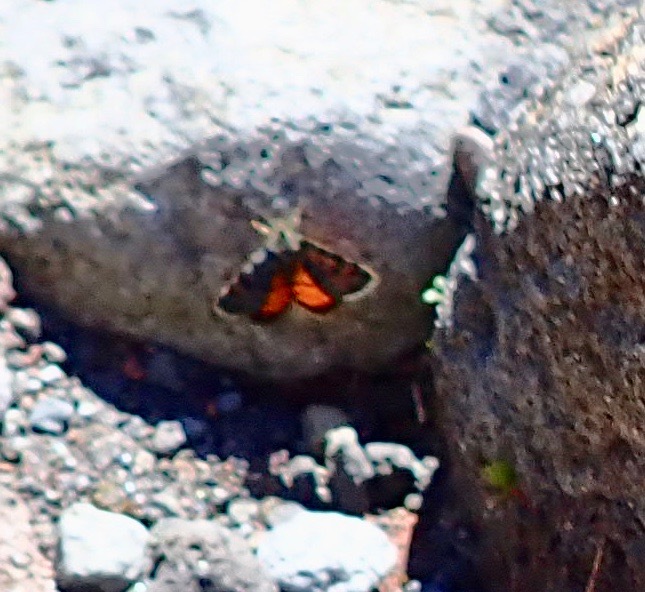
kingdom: Animalia
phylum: Arthropoda
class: Insecta
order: Lepidoptera
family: Geometridae
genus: Paranotoreas
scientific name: Paranotoreas brephosata
